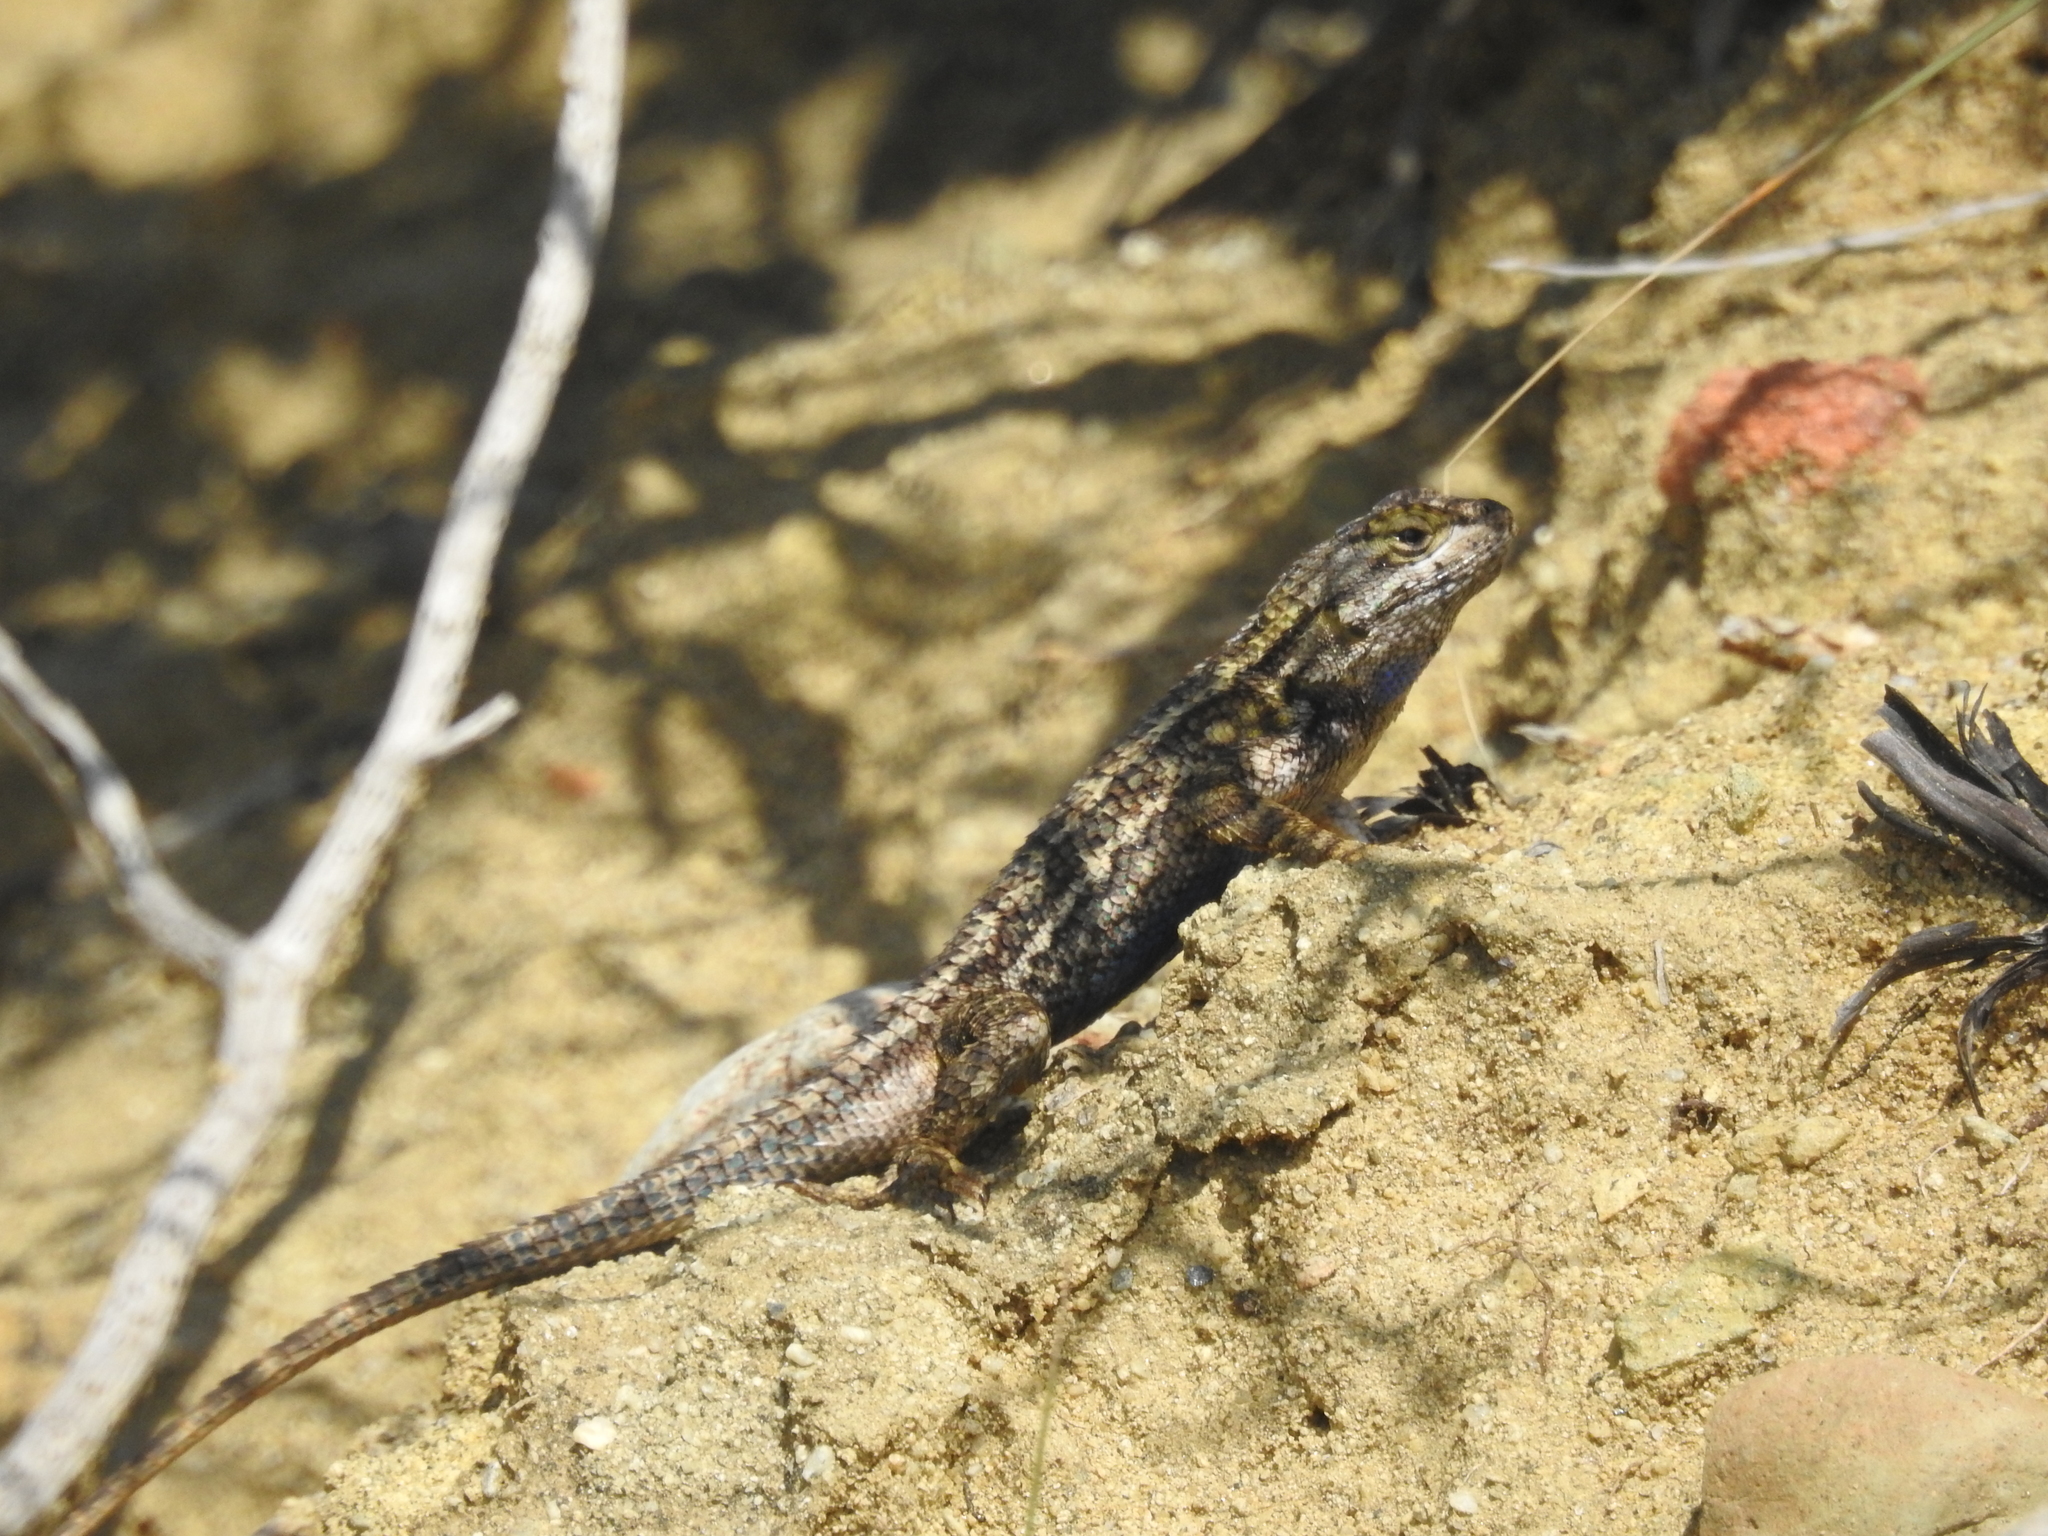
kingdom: Animalia
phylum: Chordata
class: Squamata
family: Phrynosomatidae
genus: Sceloporus
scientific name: Sceloporus occidentalis
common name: Western fence lizard
